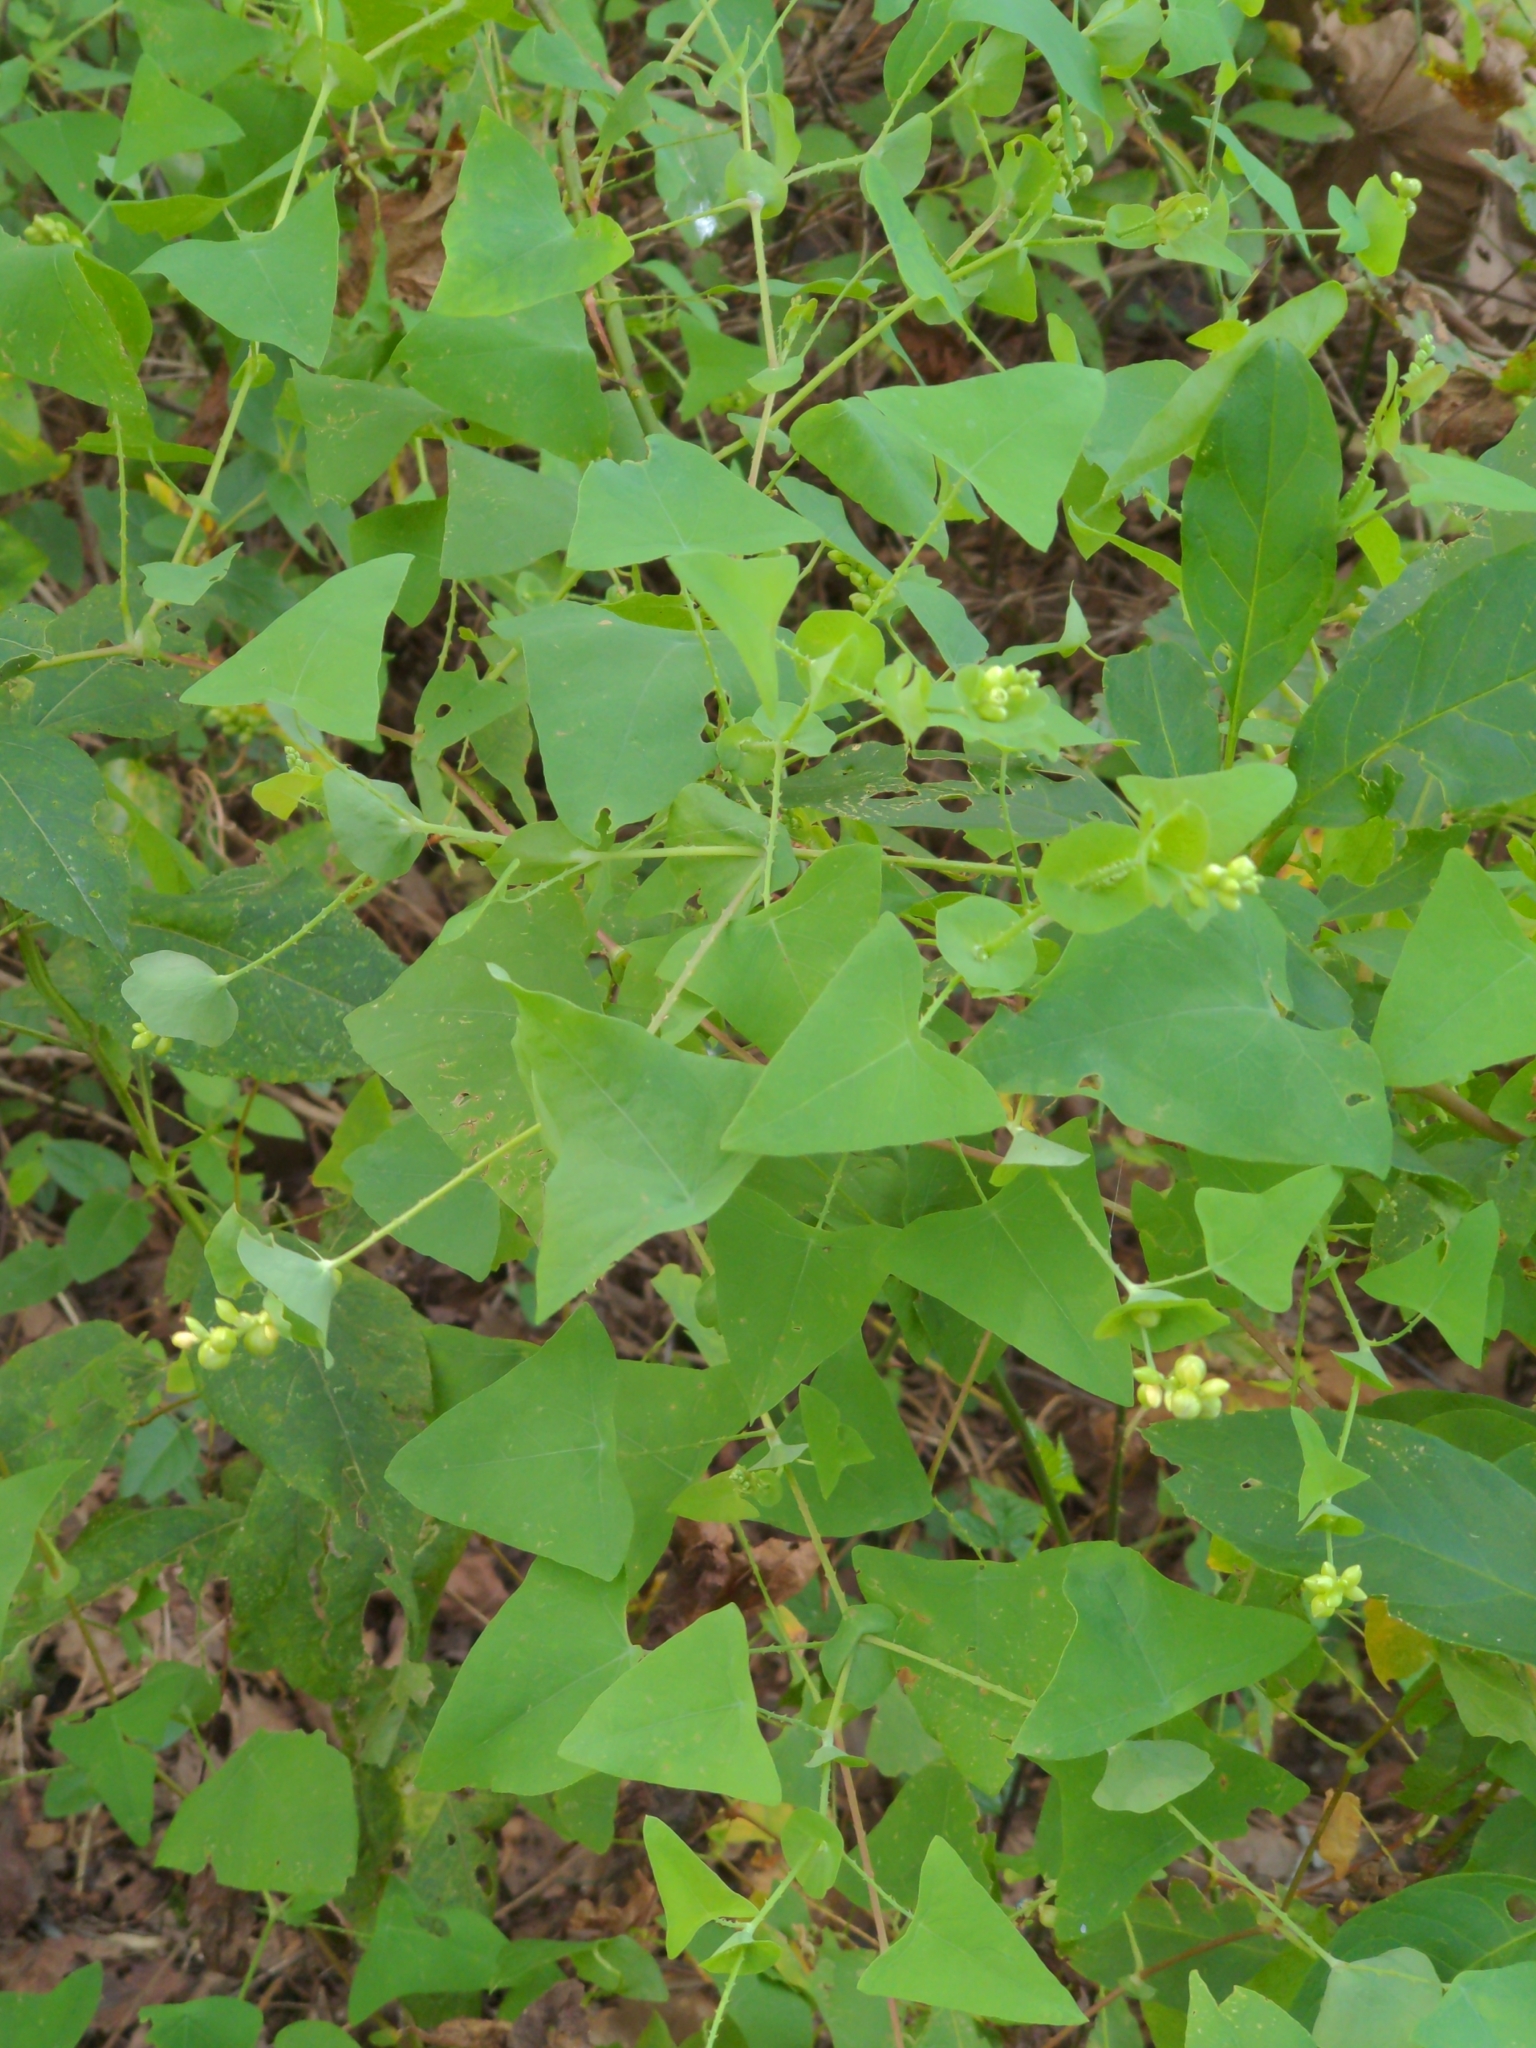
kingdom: Plantae
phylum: Tracheophyta
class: Magnoliopsida
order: Caryophyllales
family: Polygonaceae
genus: Persicaria
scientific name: Persicaria perfoliata
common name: Asiatic tearthumb
